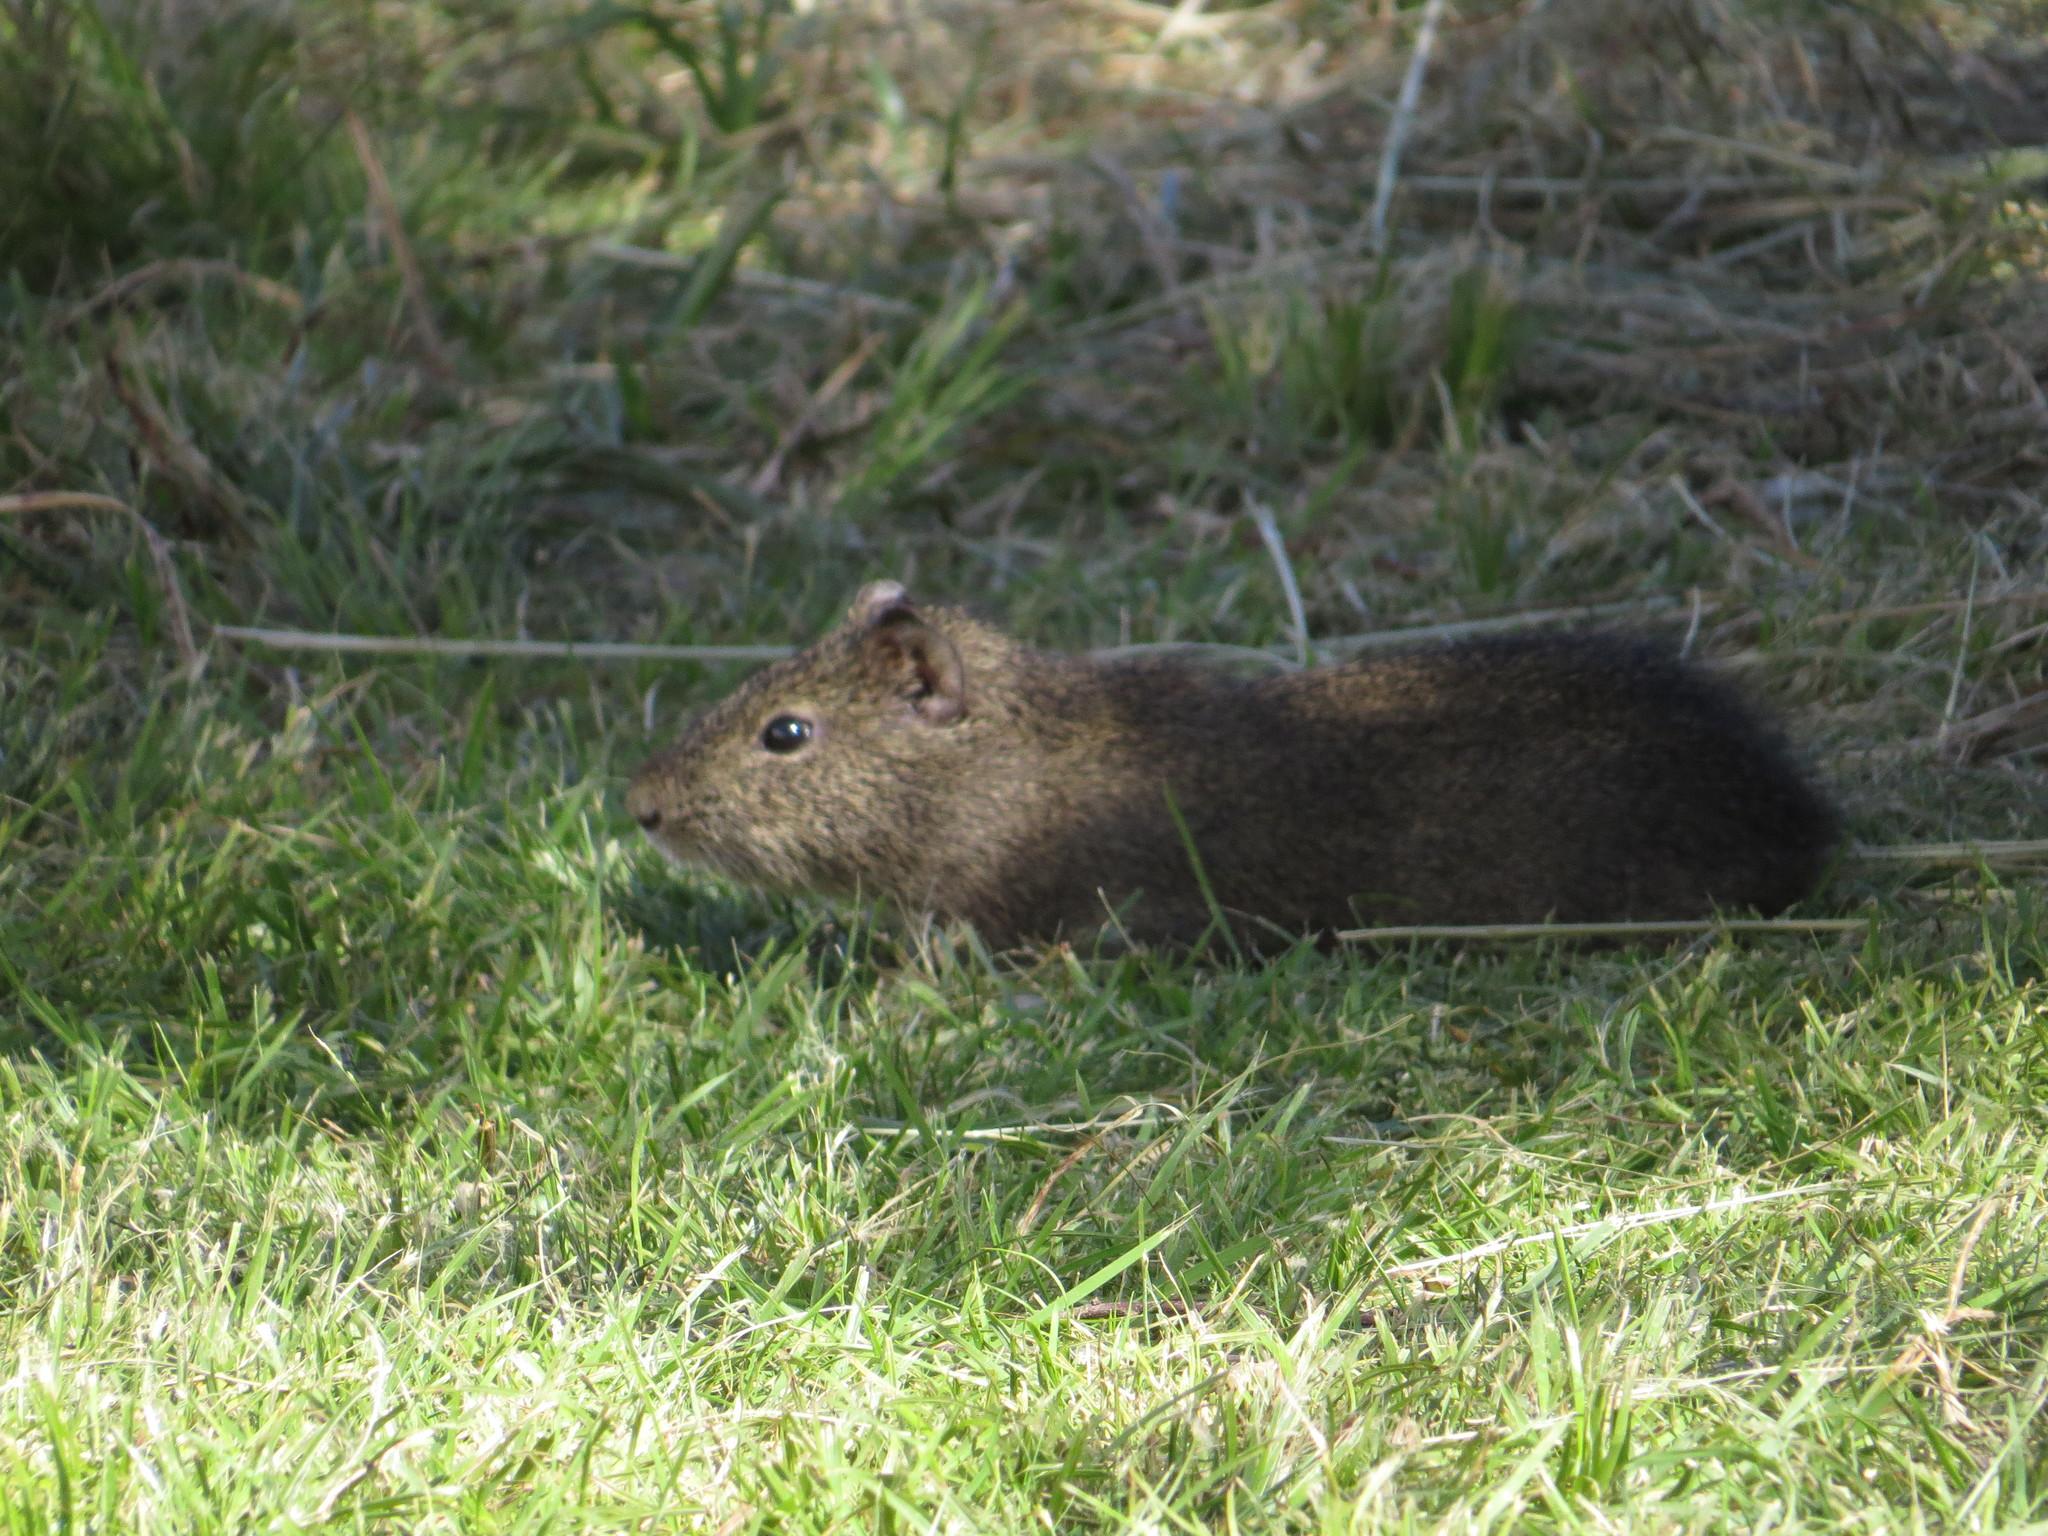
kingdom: Animalia
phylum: Chordata
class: Mammalia
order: Rodentia
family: Caviidae
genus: Cavia
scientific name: Cavia aperea
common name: Brazilian guinea pig
